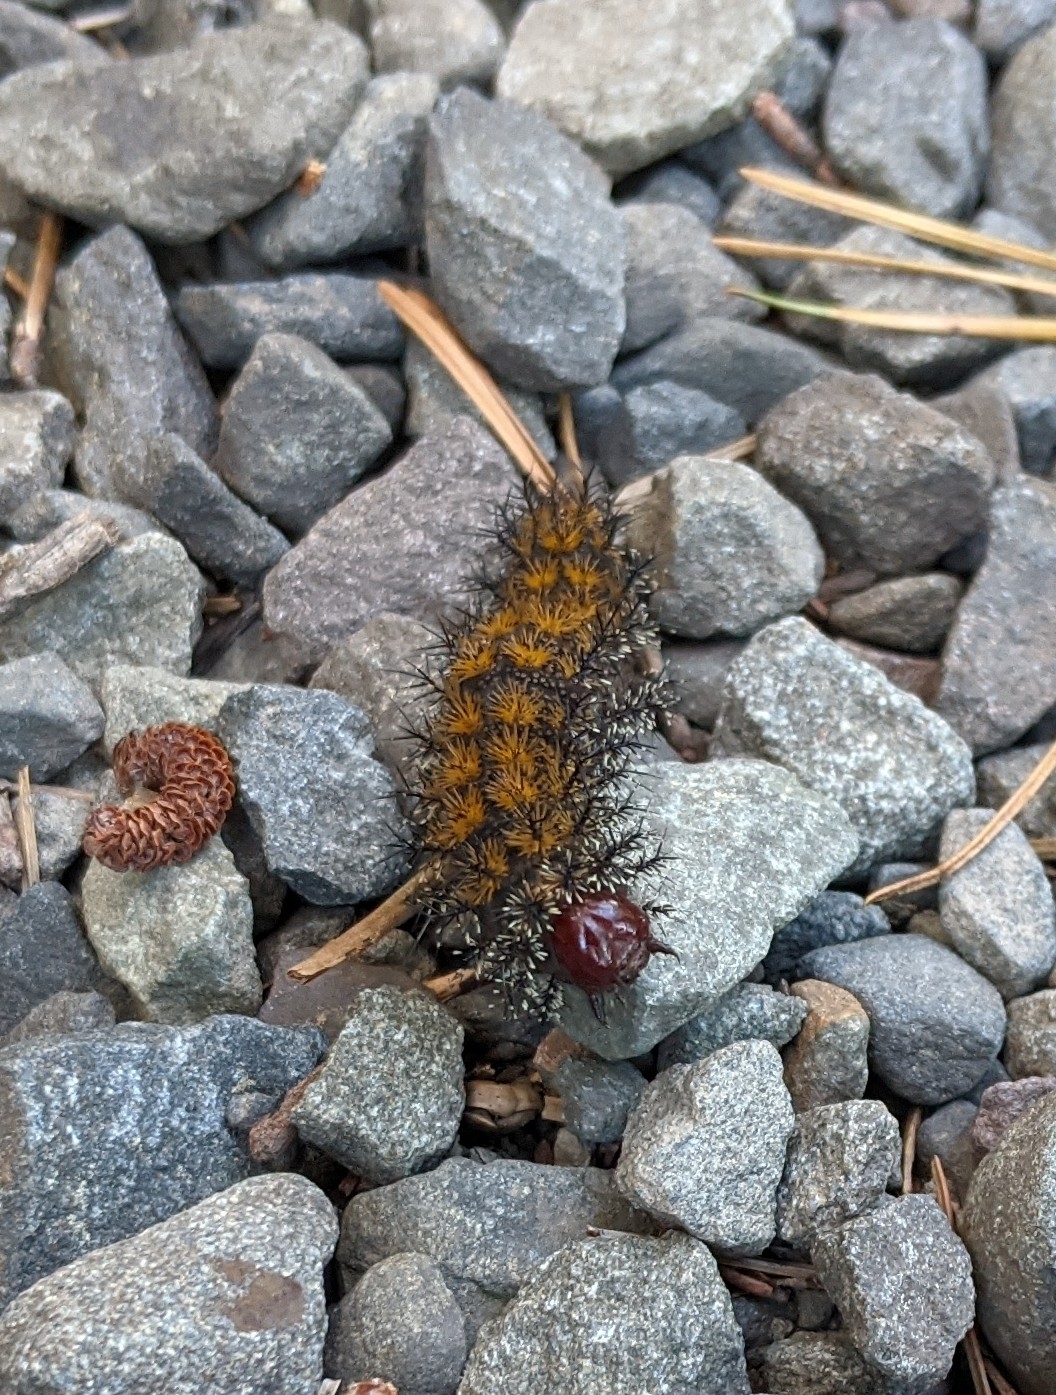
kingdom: Animalia
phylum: Arthropoda
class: Insecta
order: Lepidoptera
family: Saturniidae
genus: Hemileuca
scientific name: Hemileuca maia
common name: Eastern buckmoth
